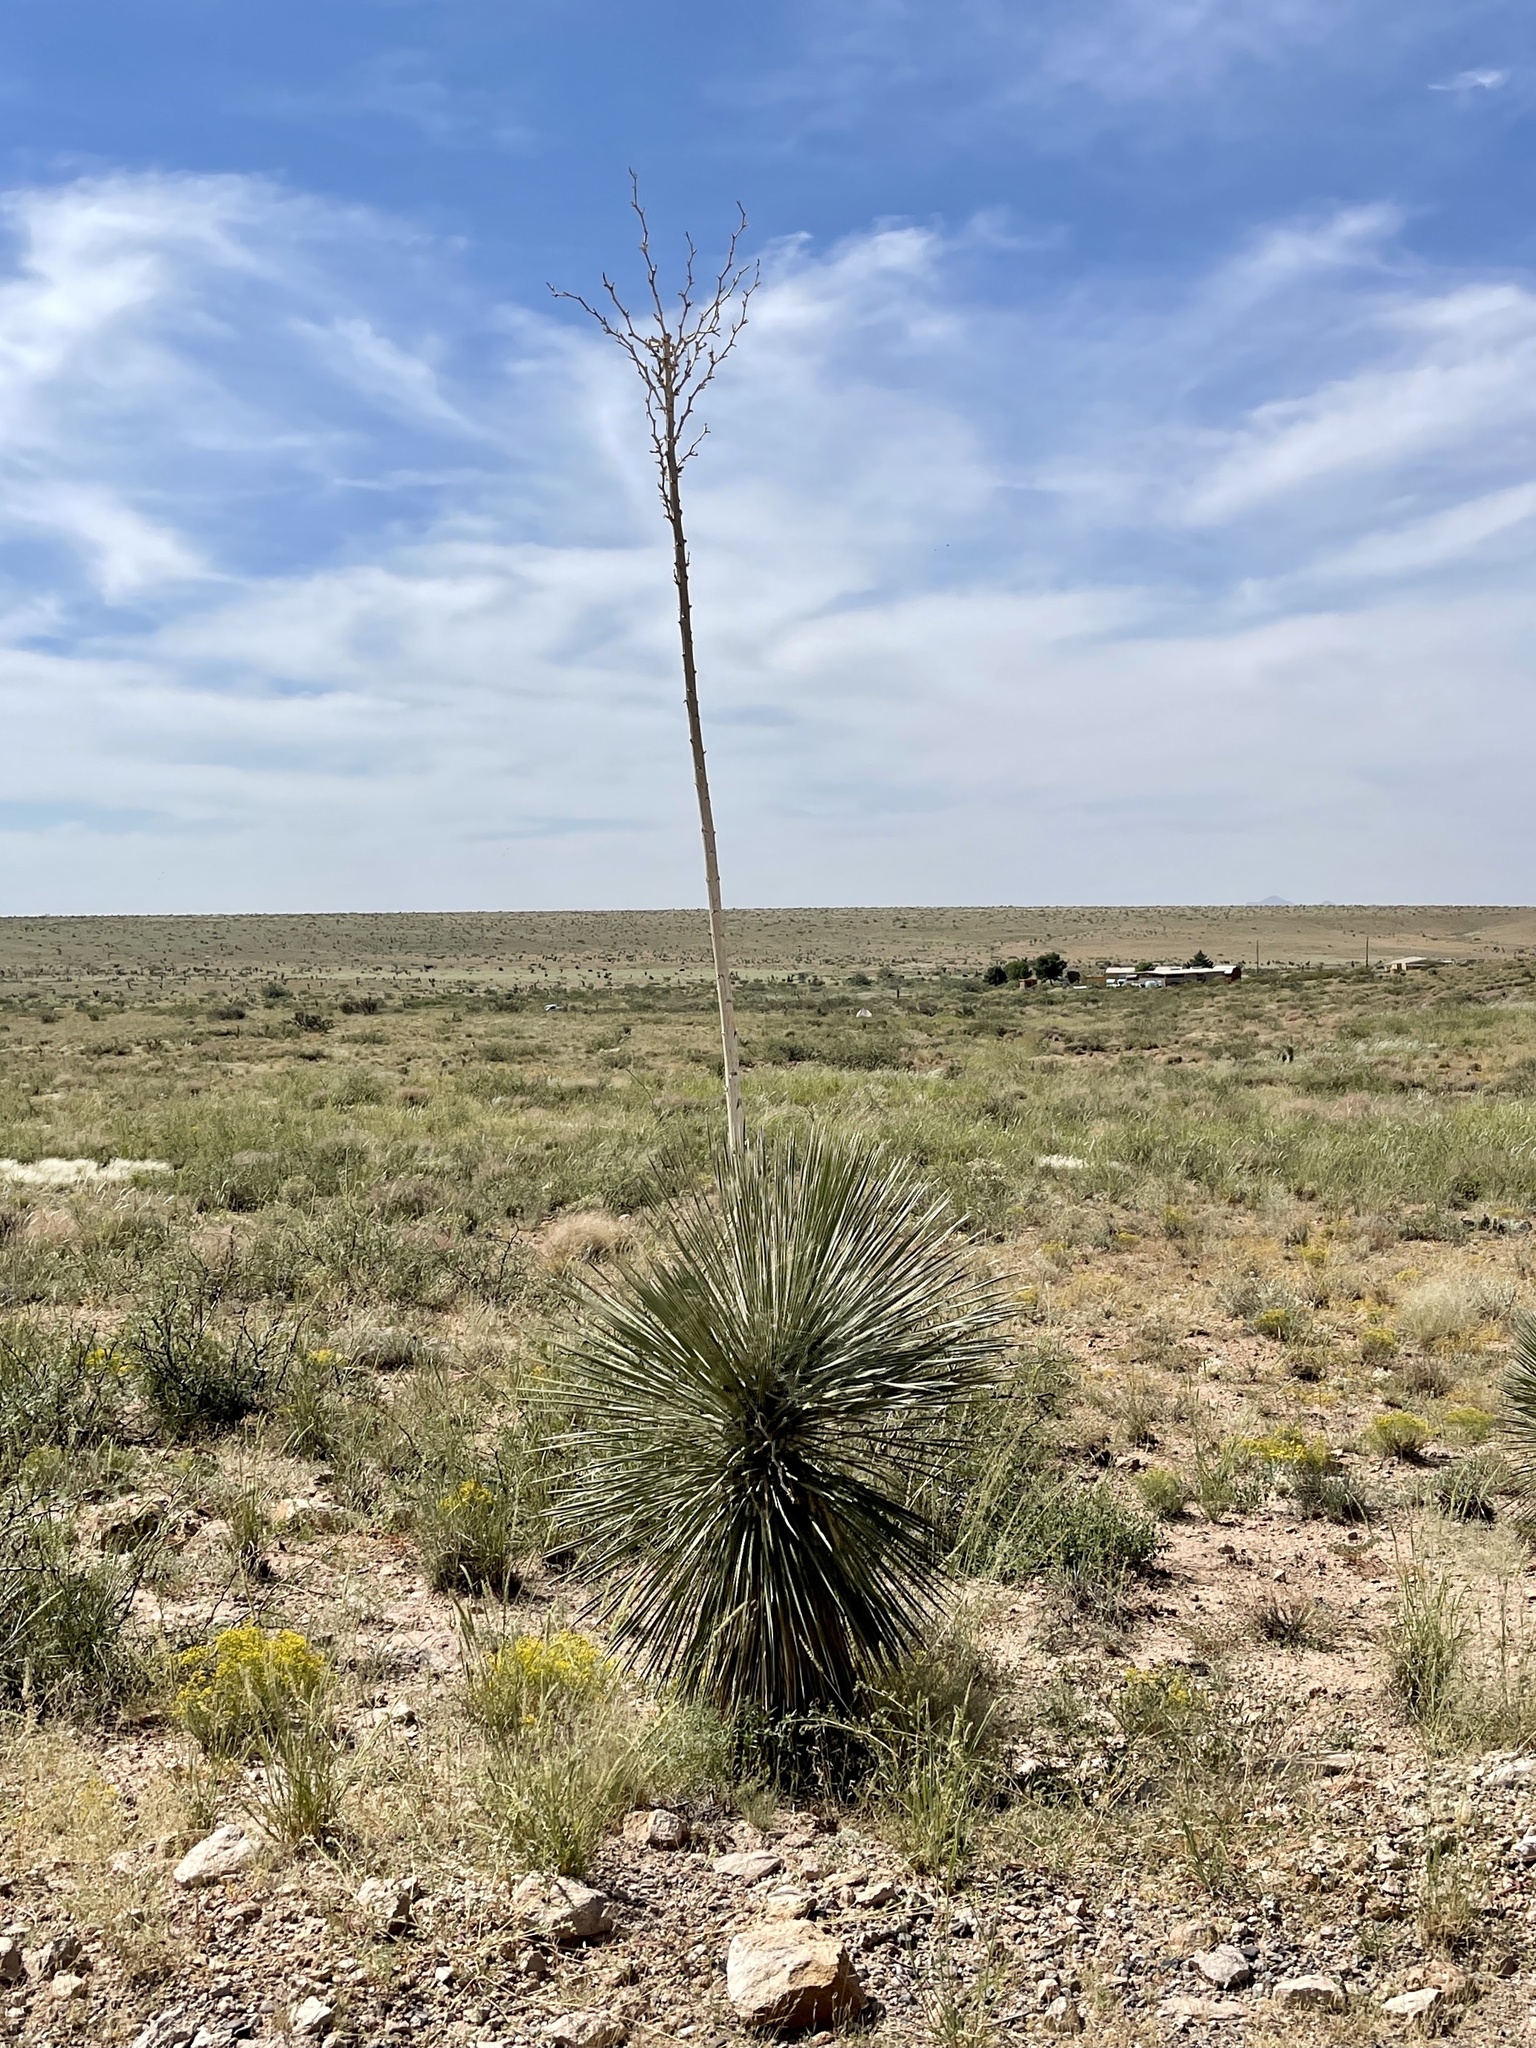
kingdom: Plantae
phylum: Tracheophyta
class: Liliopsida
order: Asparagales
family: Asparagaceae
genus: Yucca
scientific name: Yucca elata
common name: Palmella
